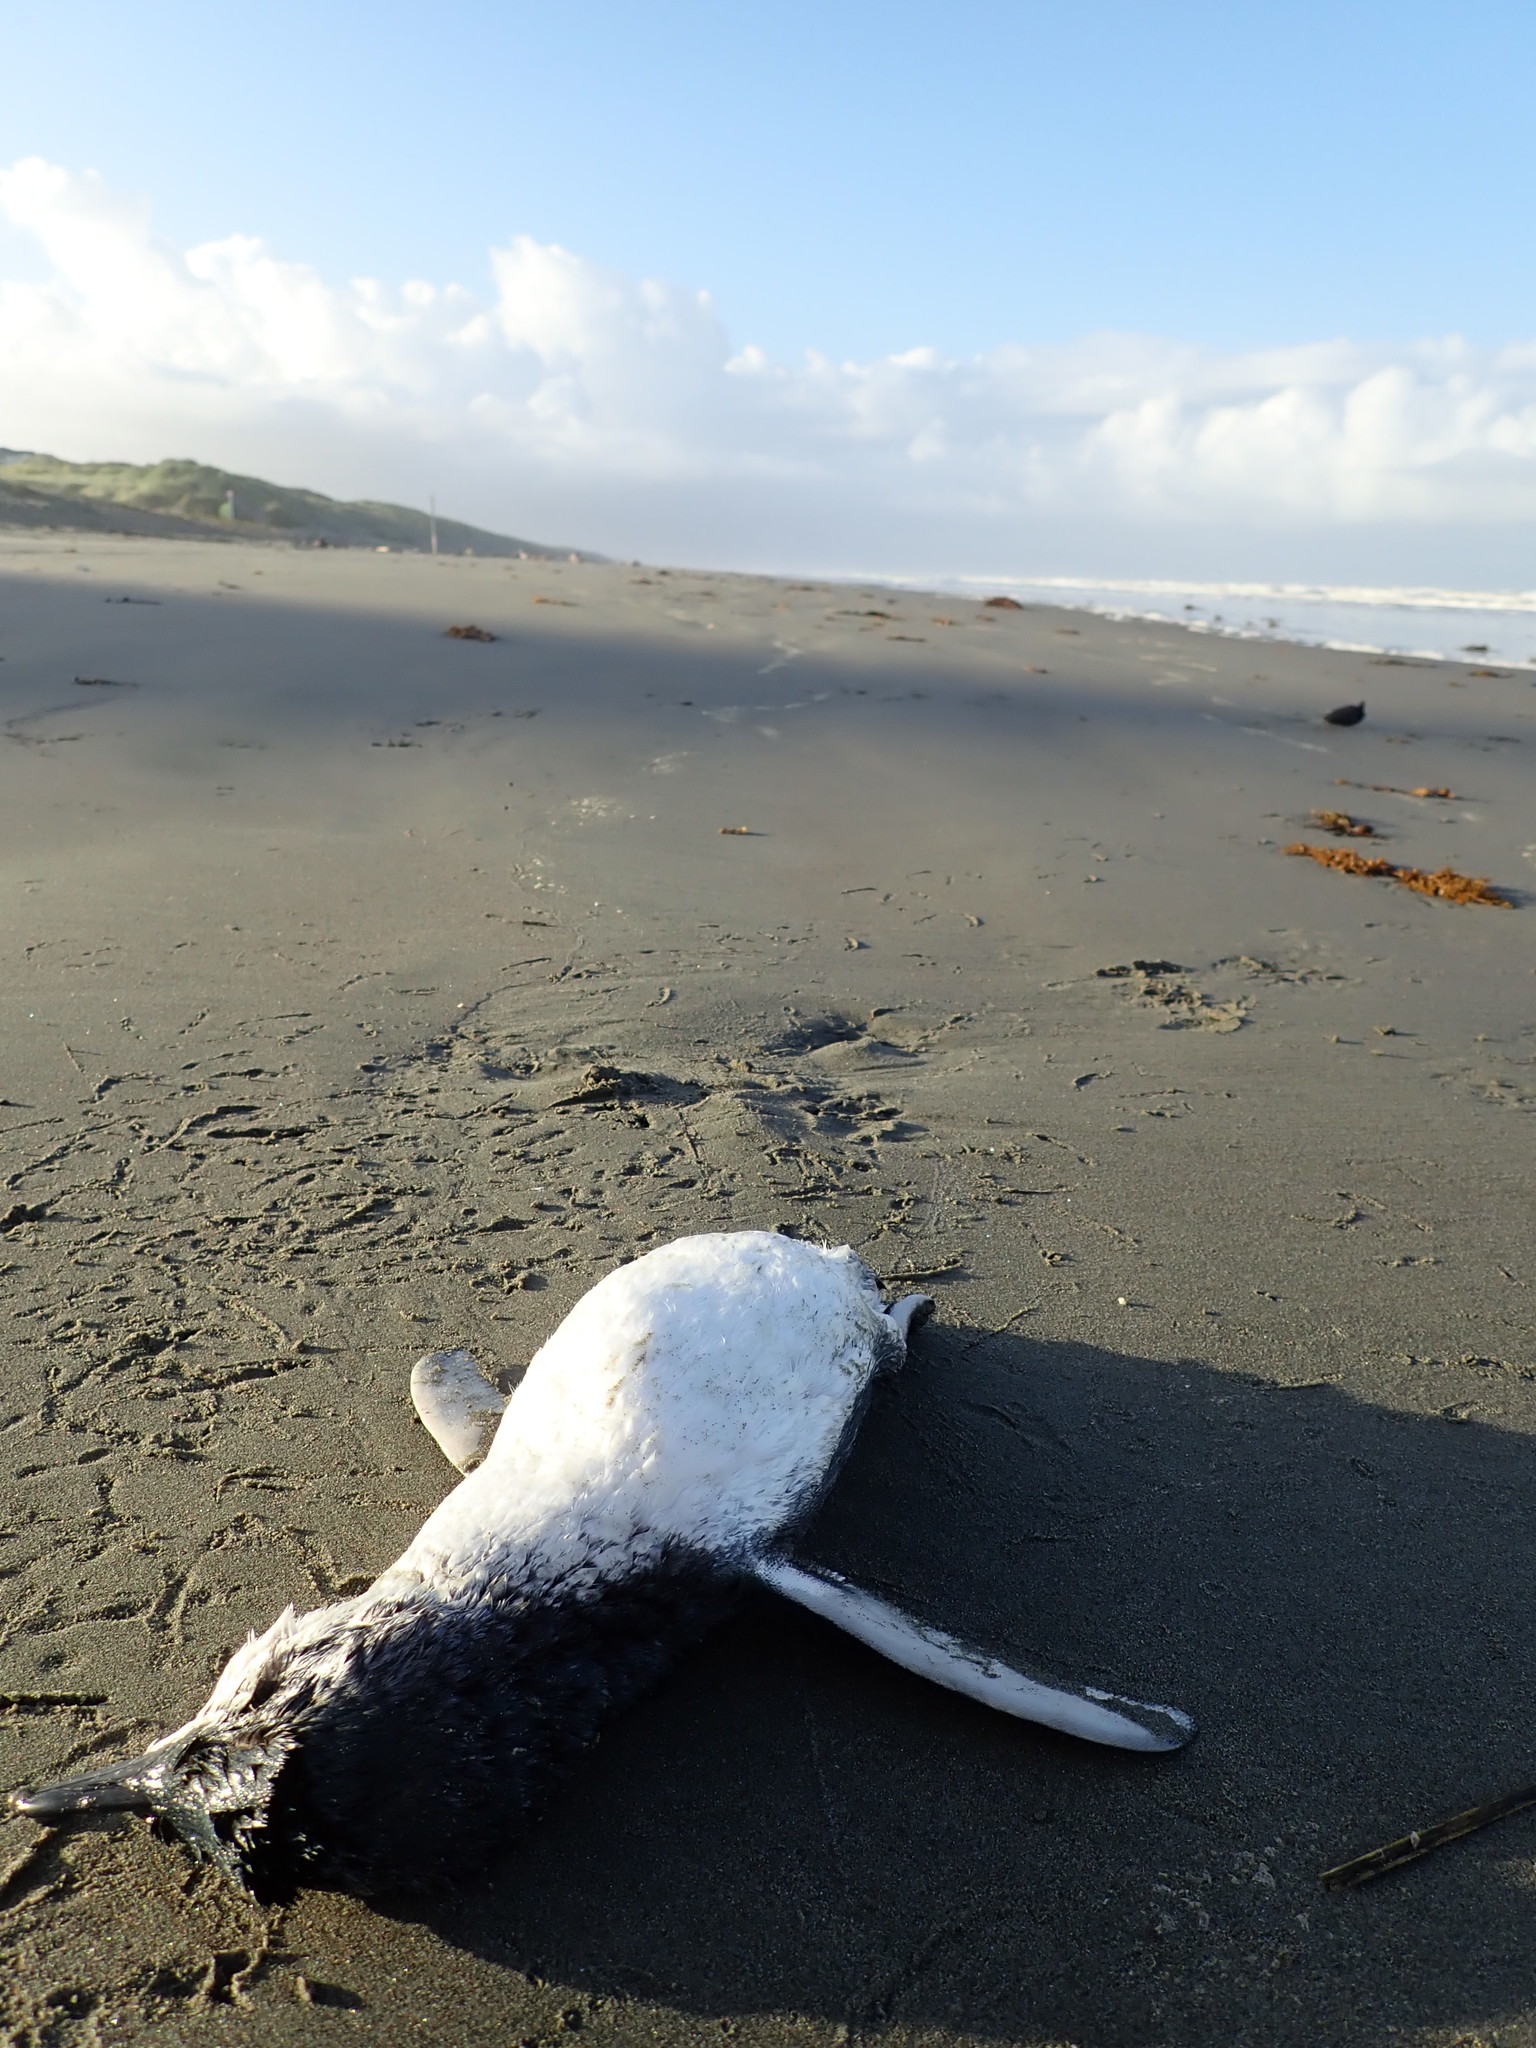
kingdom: Animalia
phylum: Chordata
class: Aves
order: Sphenisciformes
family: Spheniscidae
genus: Eudyptula
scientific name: Eudyptula minor
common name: Little penguin
